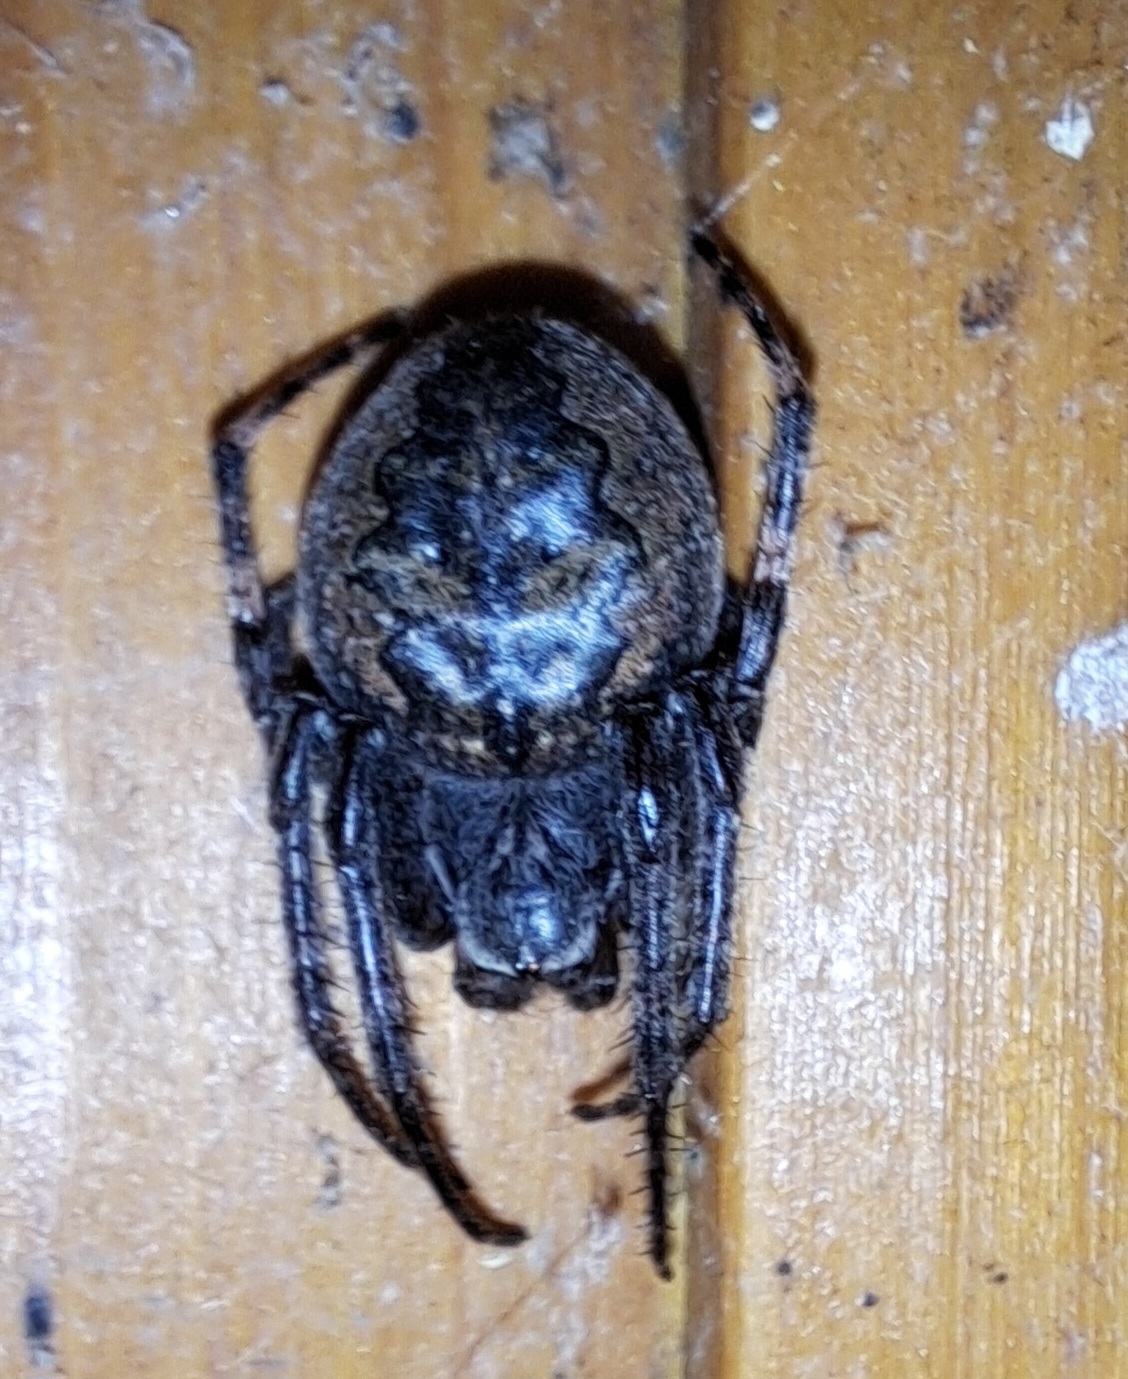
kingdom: Animalia
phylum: Arthropoda
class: Arachnida
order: Araneae
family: Araneidae
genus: Nuctenea
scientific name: Nuctenea umbratica
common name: Toad spider
